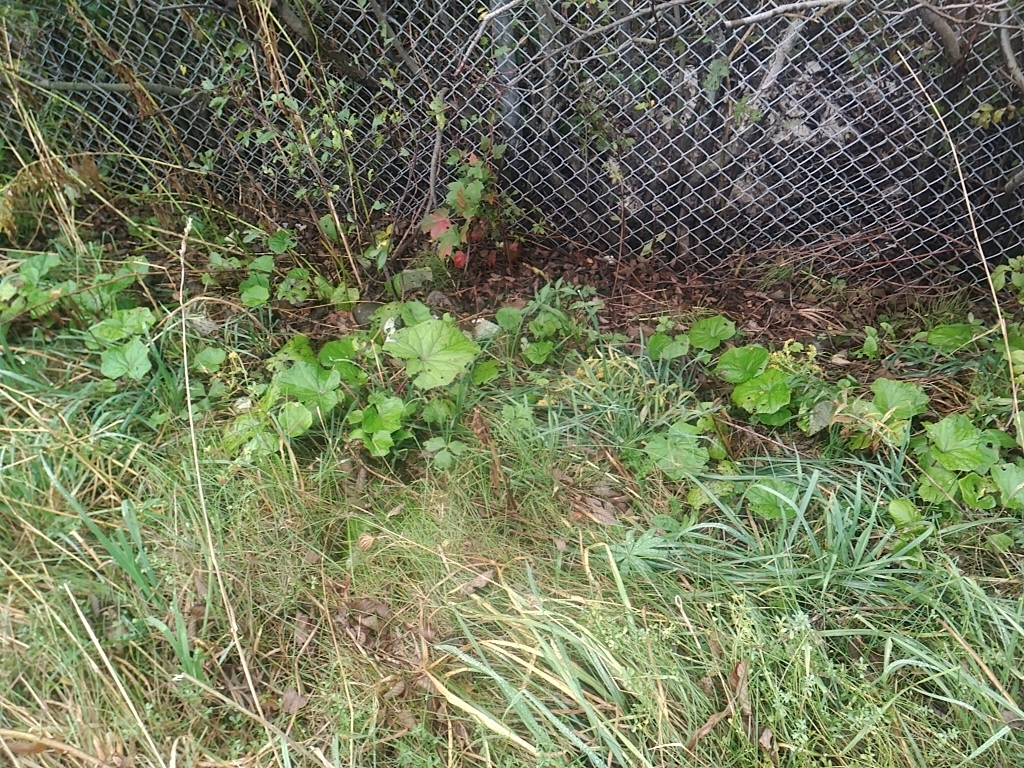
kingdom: Plantae
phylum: Tracheophyta
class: Magnoliopsida
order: Asterales
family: Asteraceae
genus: Tussilago
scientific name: Tussilago farfara
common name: Coltsfoot
